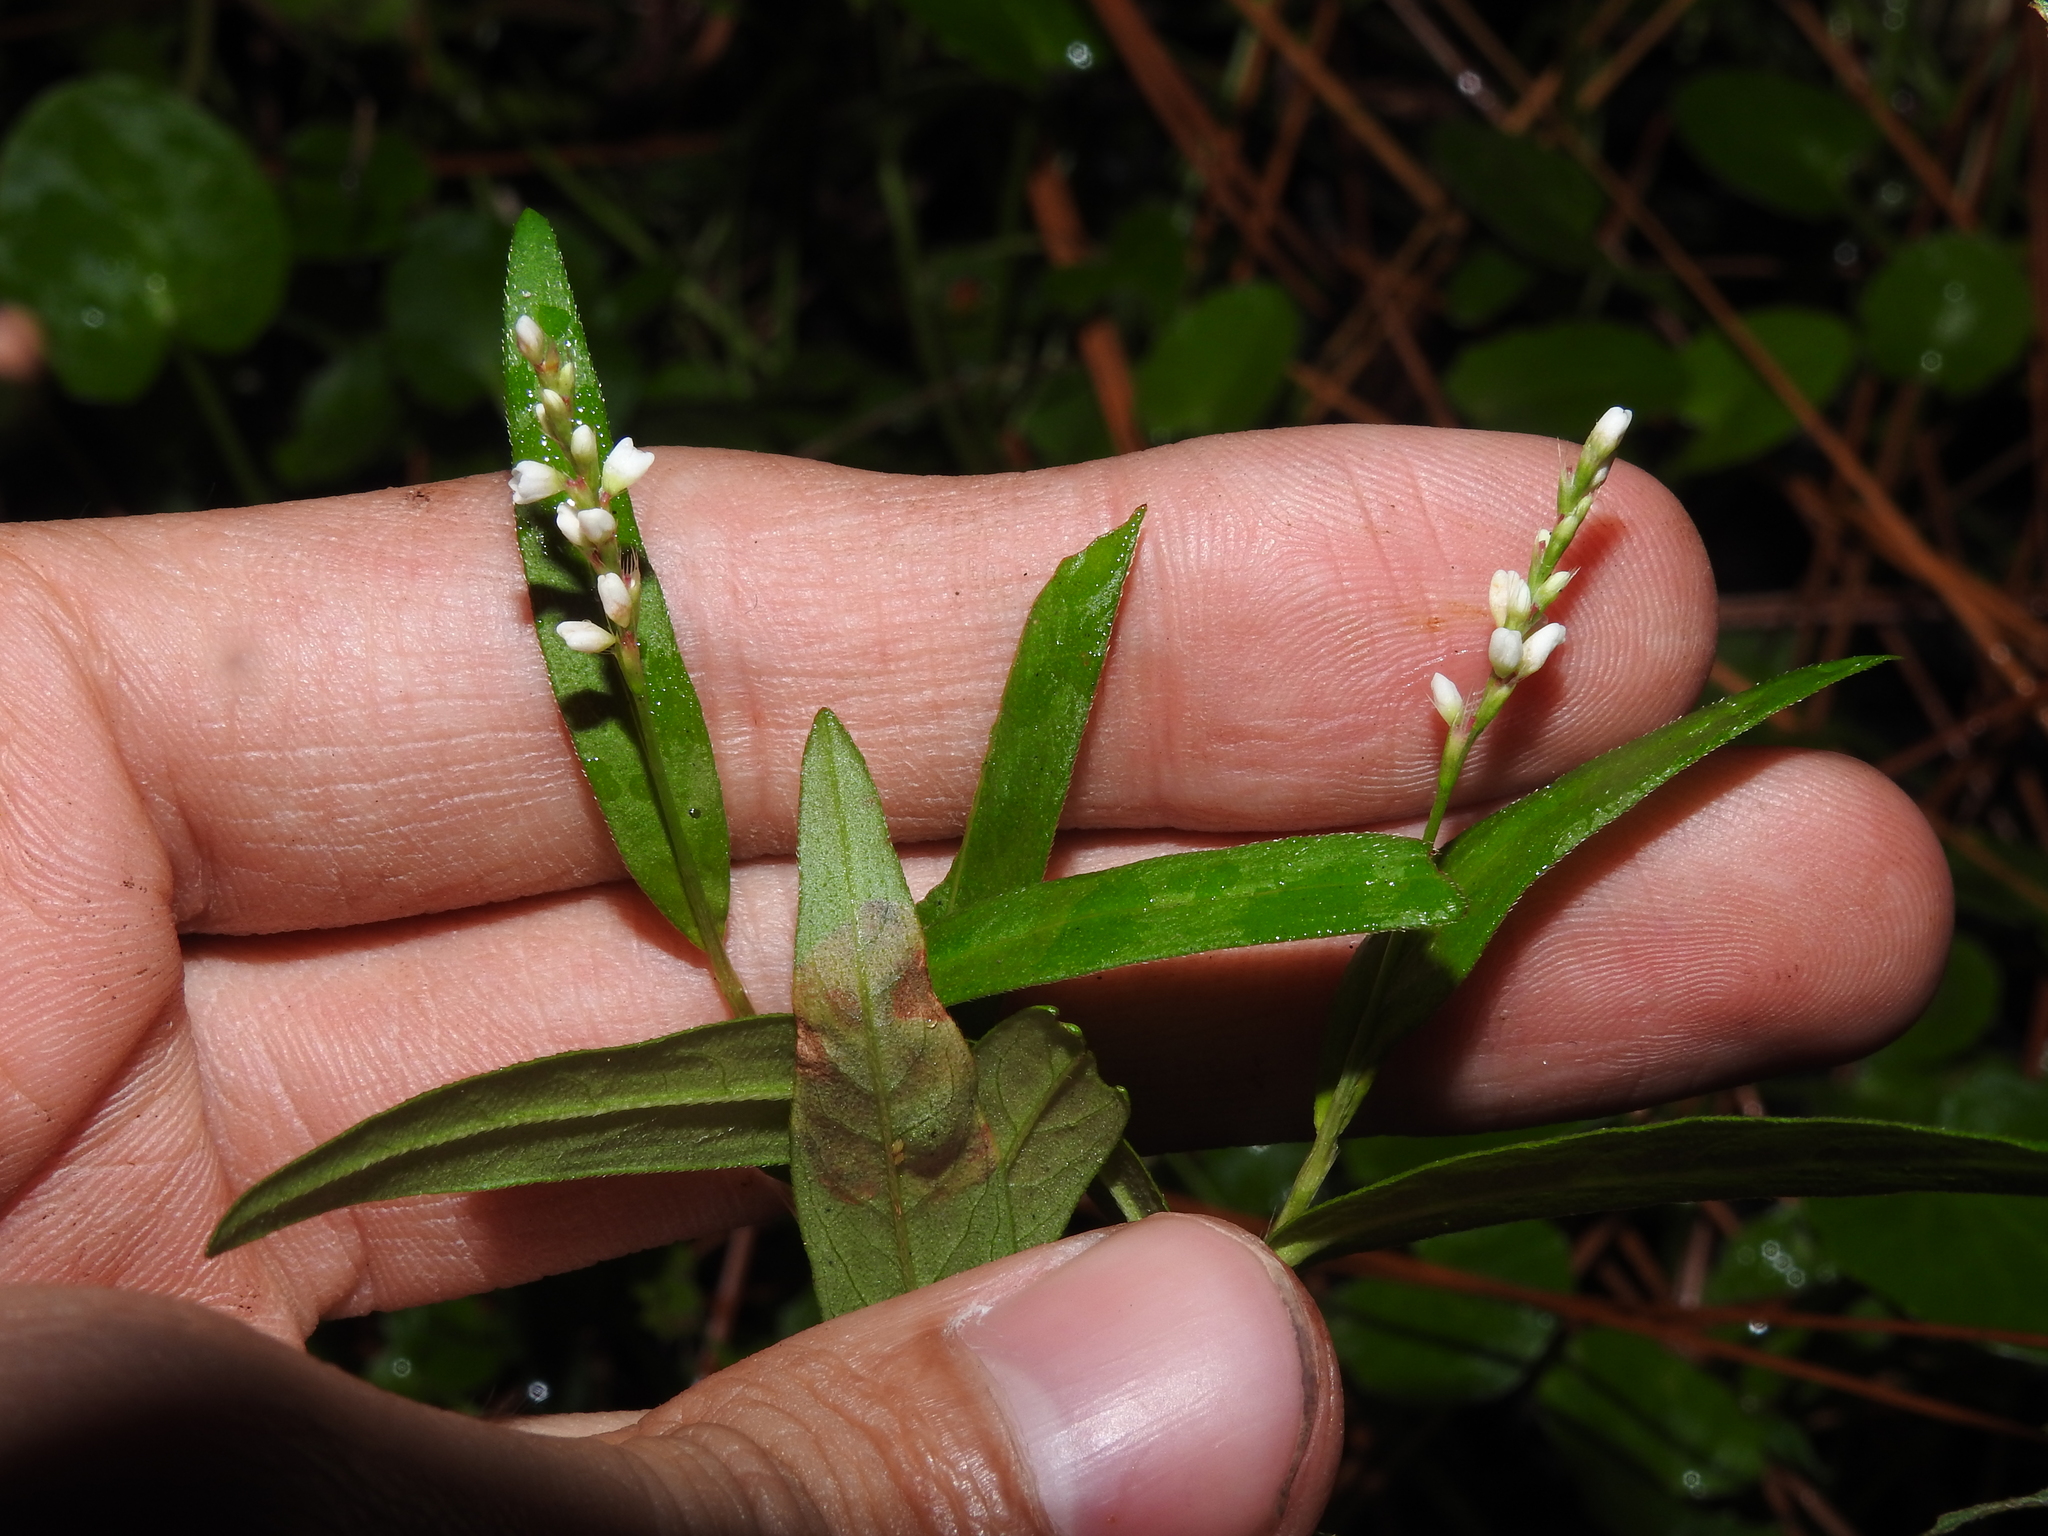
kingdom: Plantae
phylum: Tracheophyta
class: Magnoliopsida
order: Caryophyllales
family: Polygonaceae
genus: Persicaria
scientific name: Persicaria hydropiperoides
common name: Swamp smartweed
